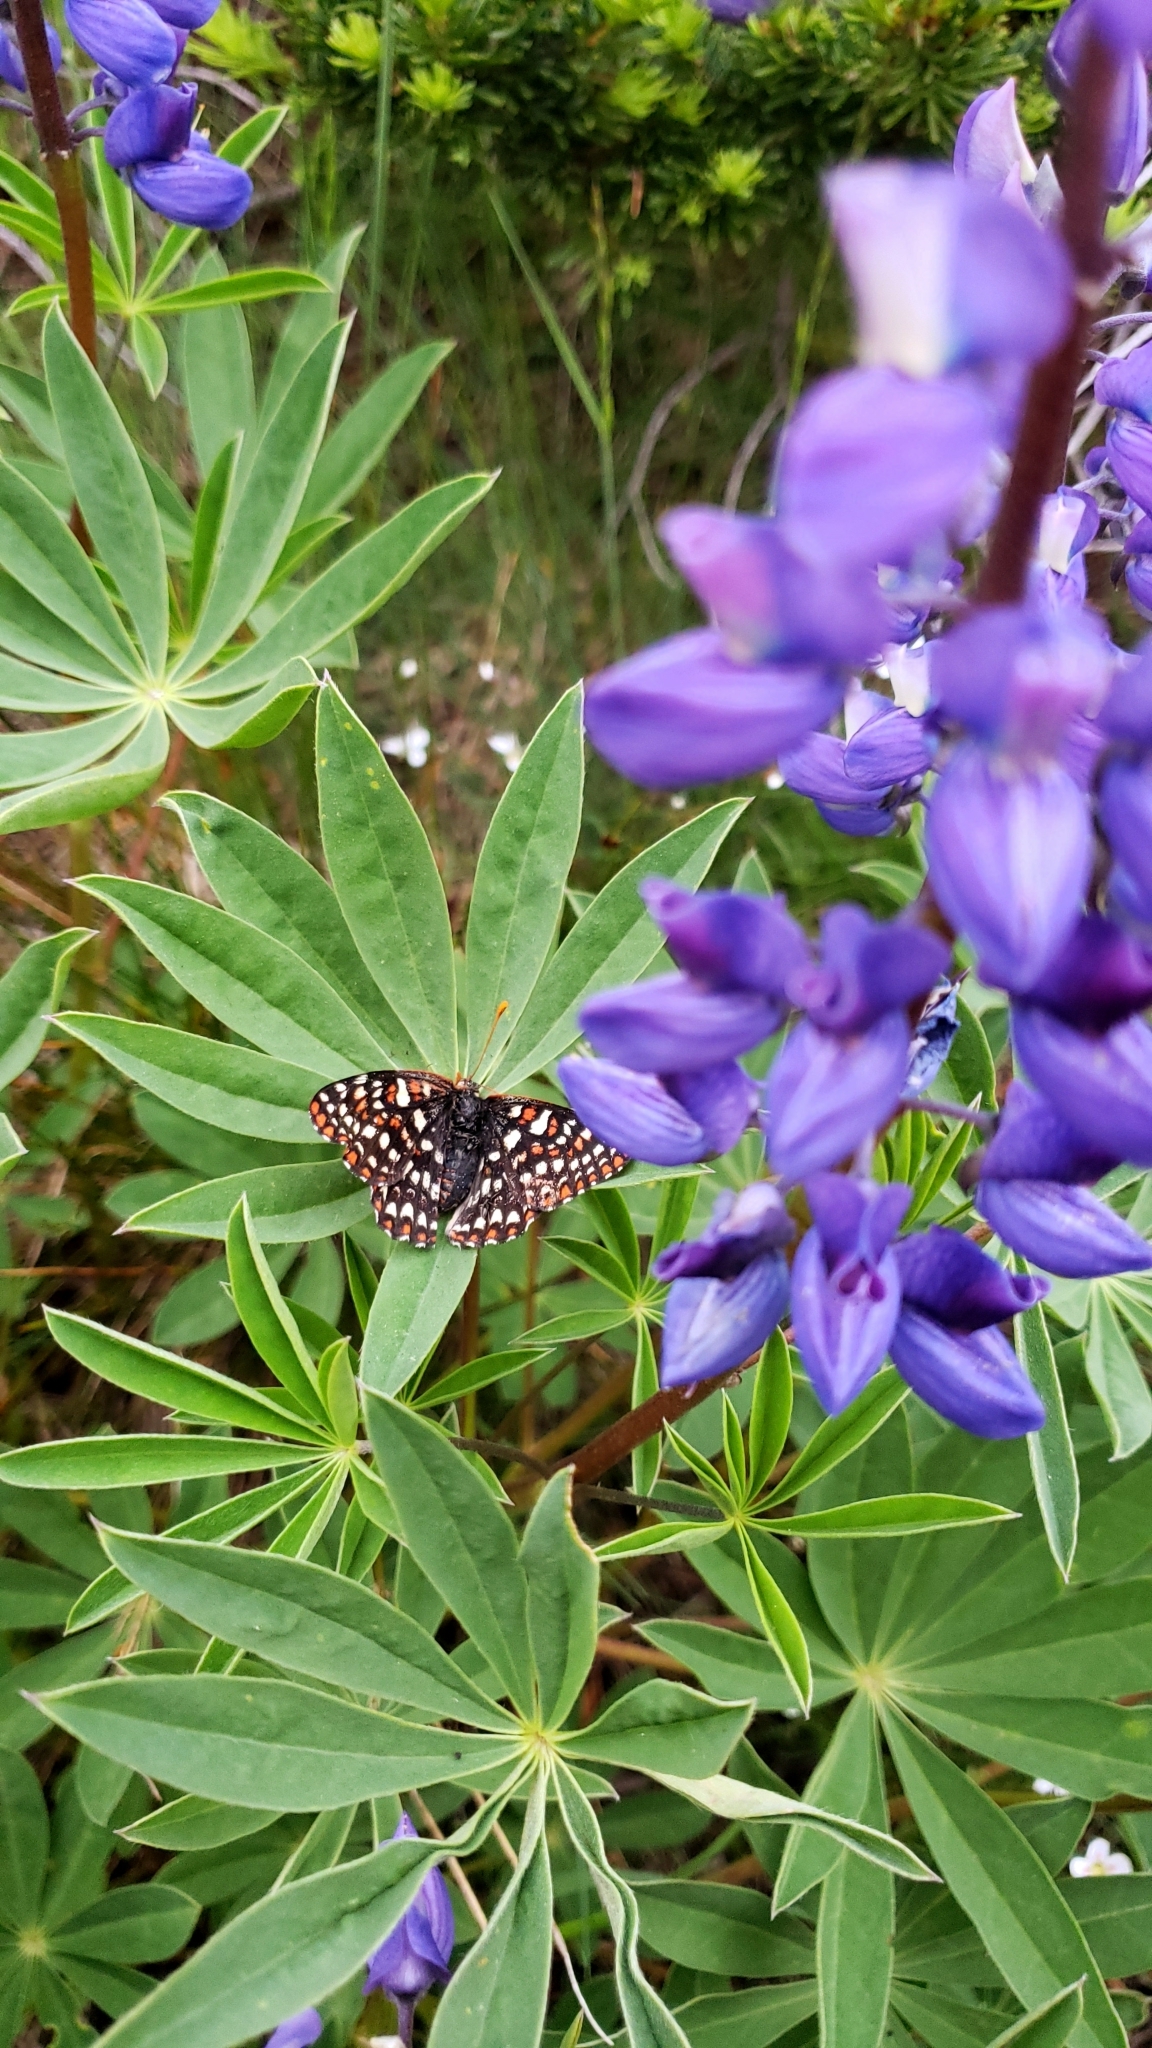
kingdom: Animalia
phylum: Arthropoda
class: Insecta
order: Lepidoptera
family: Nymphalidae
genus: Occidryas
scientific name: Occidryas colon
